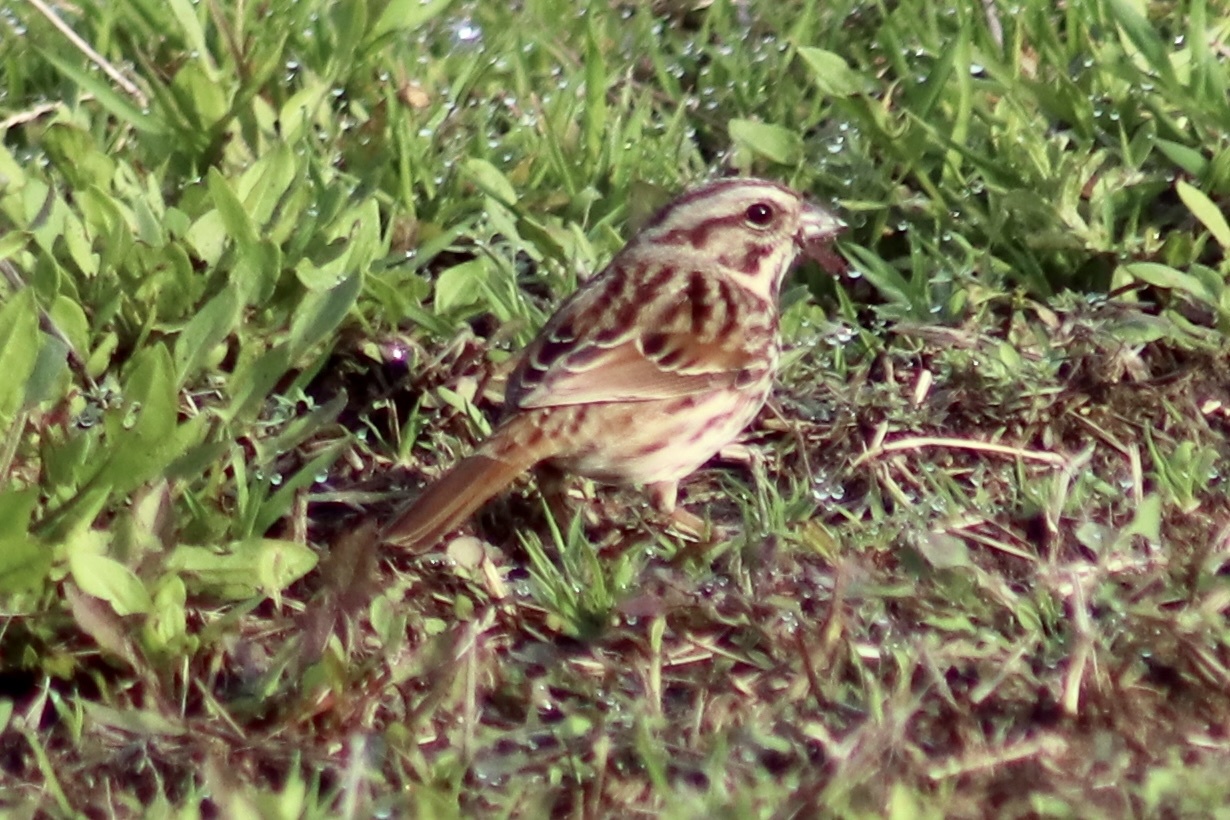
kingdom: Animalia
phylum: Chordata
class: Aves
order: Passeriformes
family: Passerellidae
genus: Melospiza
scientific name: Melospiza melodia
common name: Song sparrow
